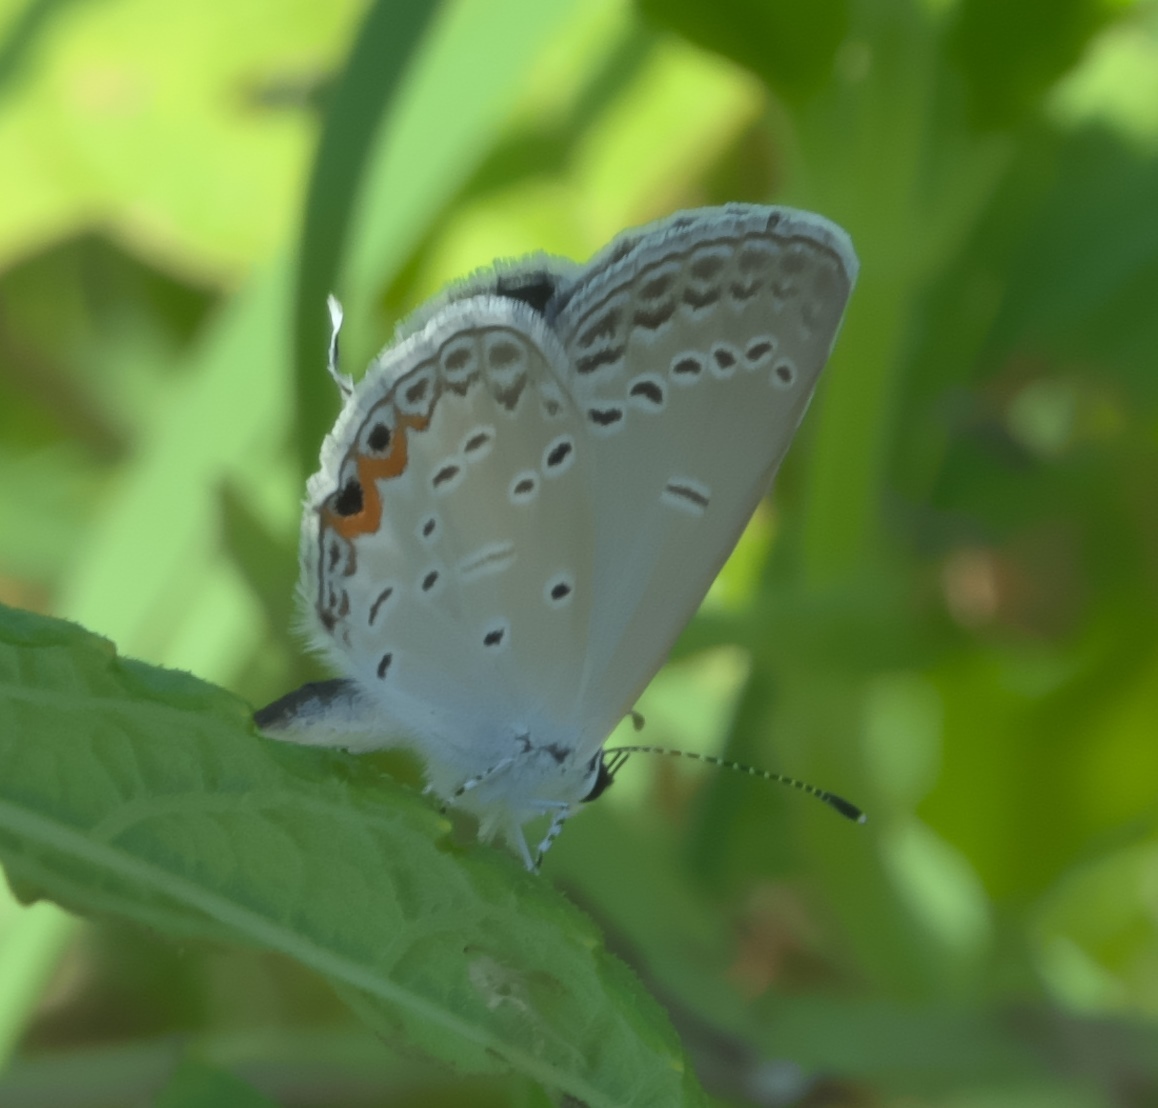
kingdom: Animalia
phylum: Arthropoda
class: Insecta
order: Lepidoptera
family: Lycaenidae
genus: Elkalyce
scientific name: Elkalyce comyntas
